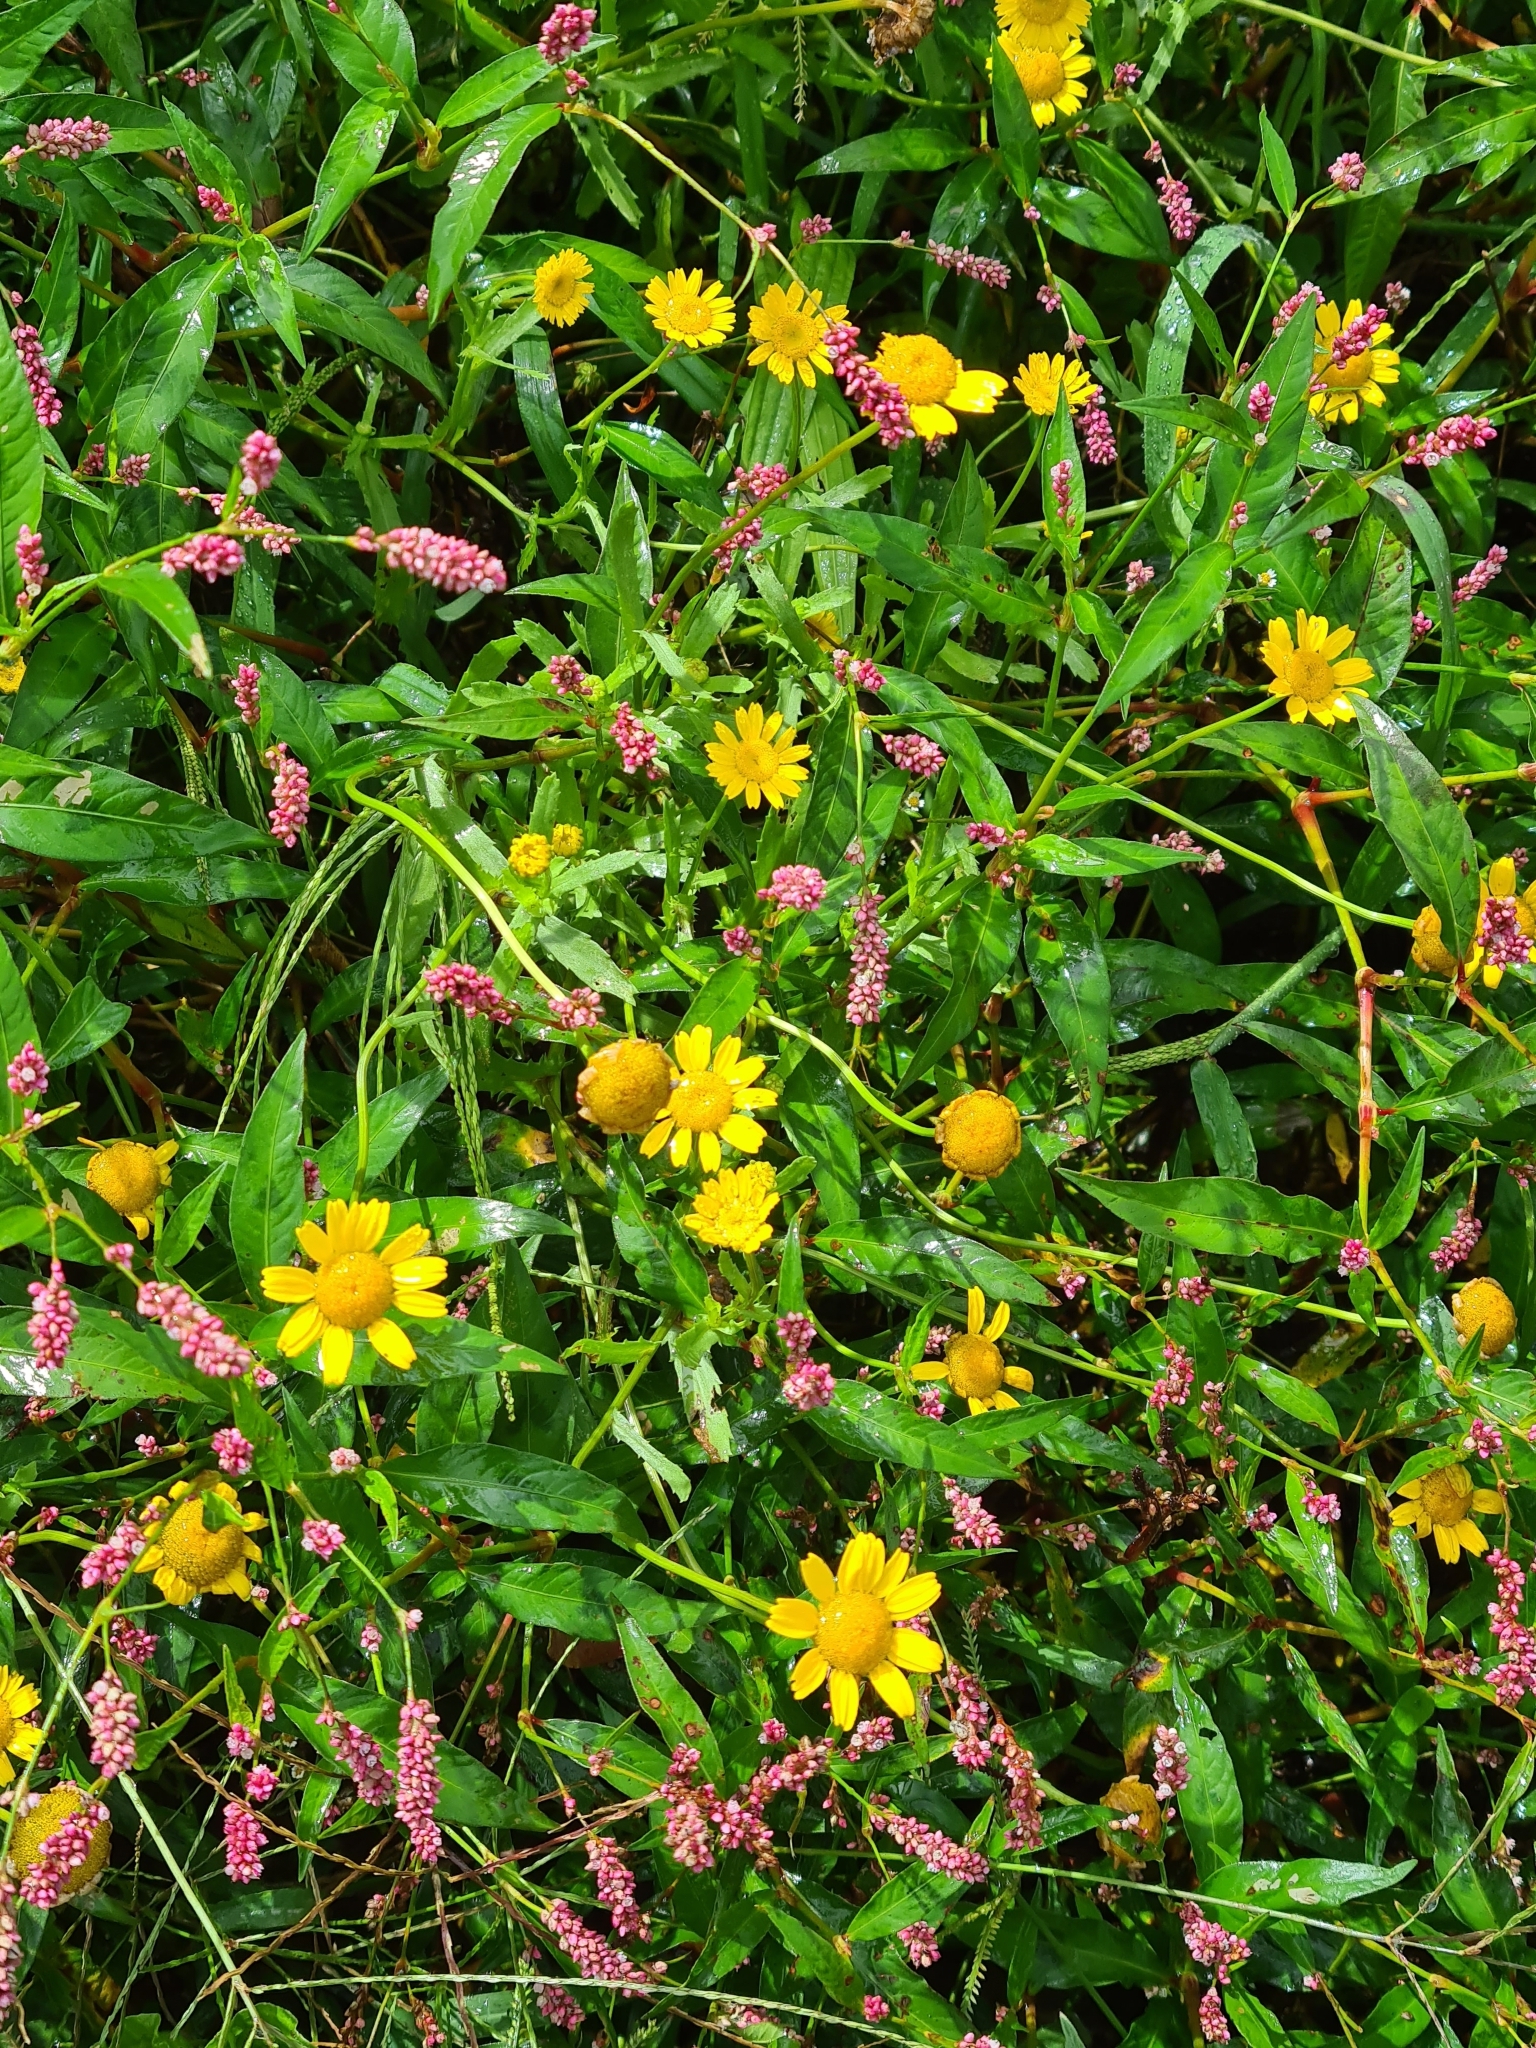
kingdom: Plantae
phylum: Tracheophyta
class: Magnoliopsida
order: Asterales
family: Asteraceae
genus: Coleostephus
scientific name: Coleostephus myconis
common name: Mediterranean marigold
